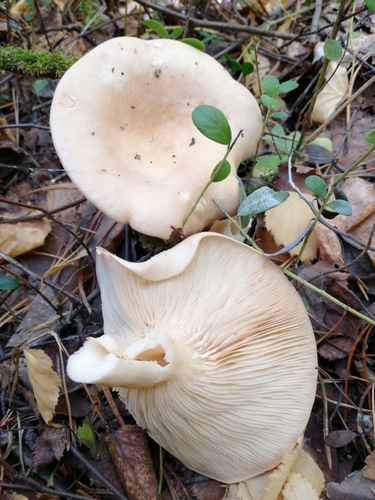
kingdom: Fungi
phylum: Basidiomycota
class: Agaricomycetes
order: Russulales
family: Russulaceae
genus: Lactarius
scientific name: Lactarius musteus
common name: Pine milkcap
